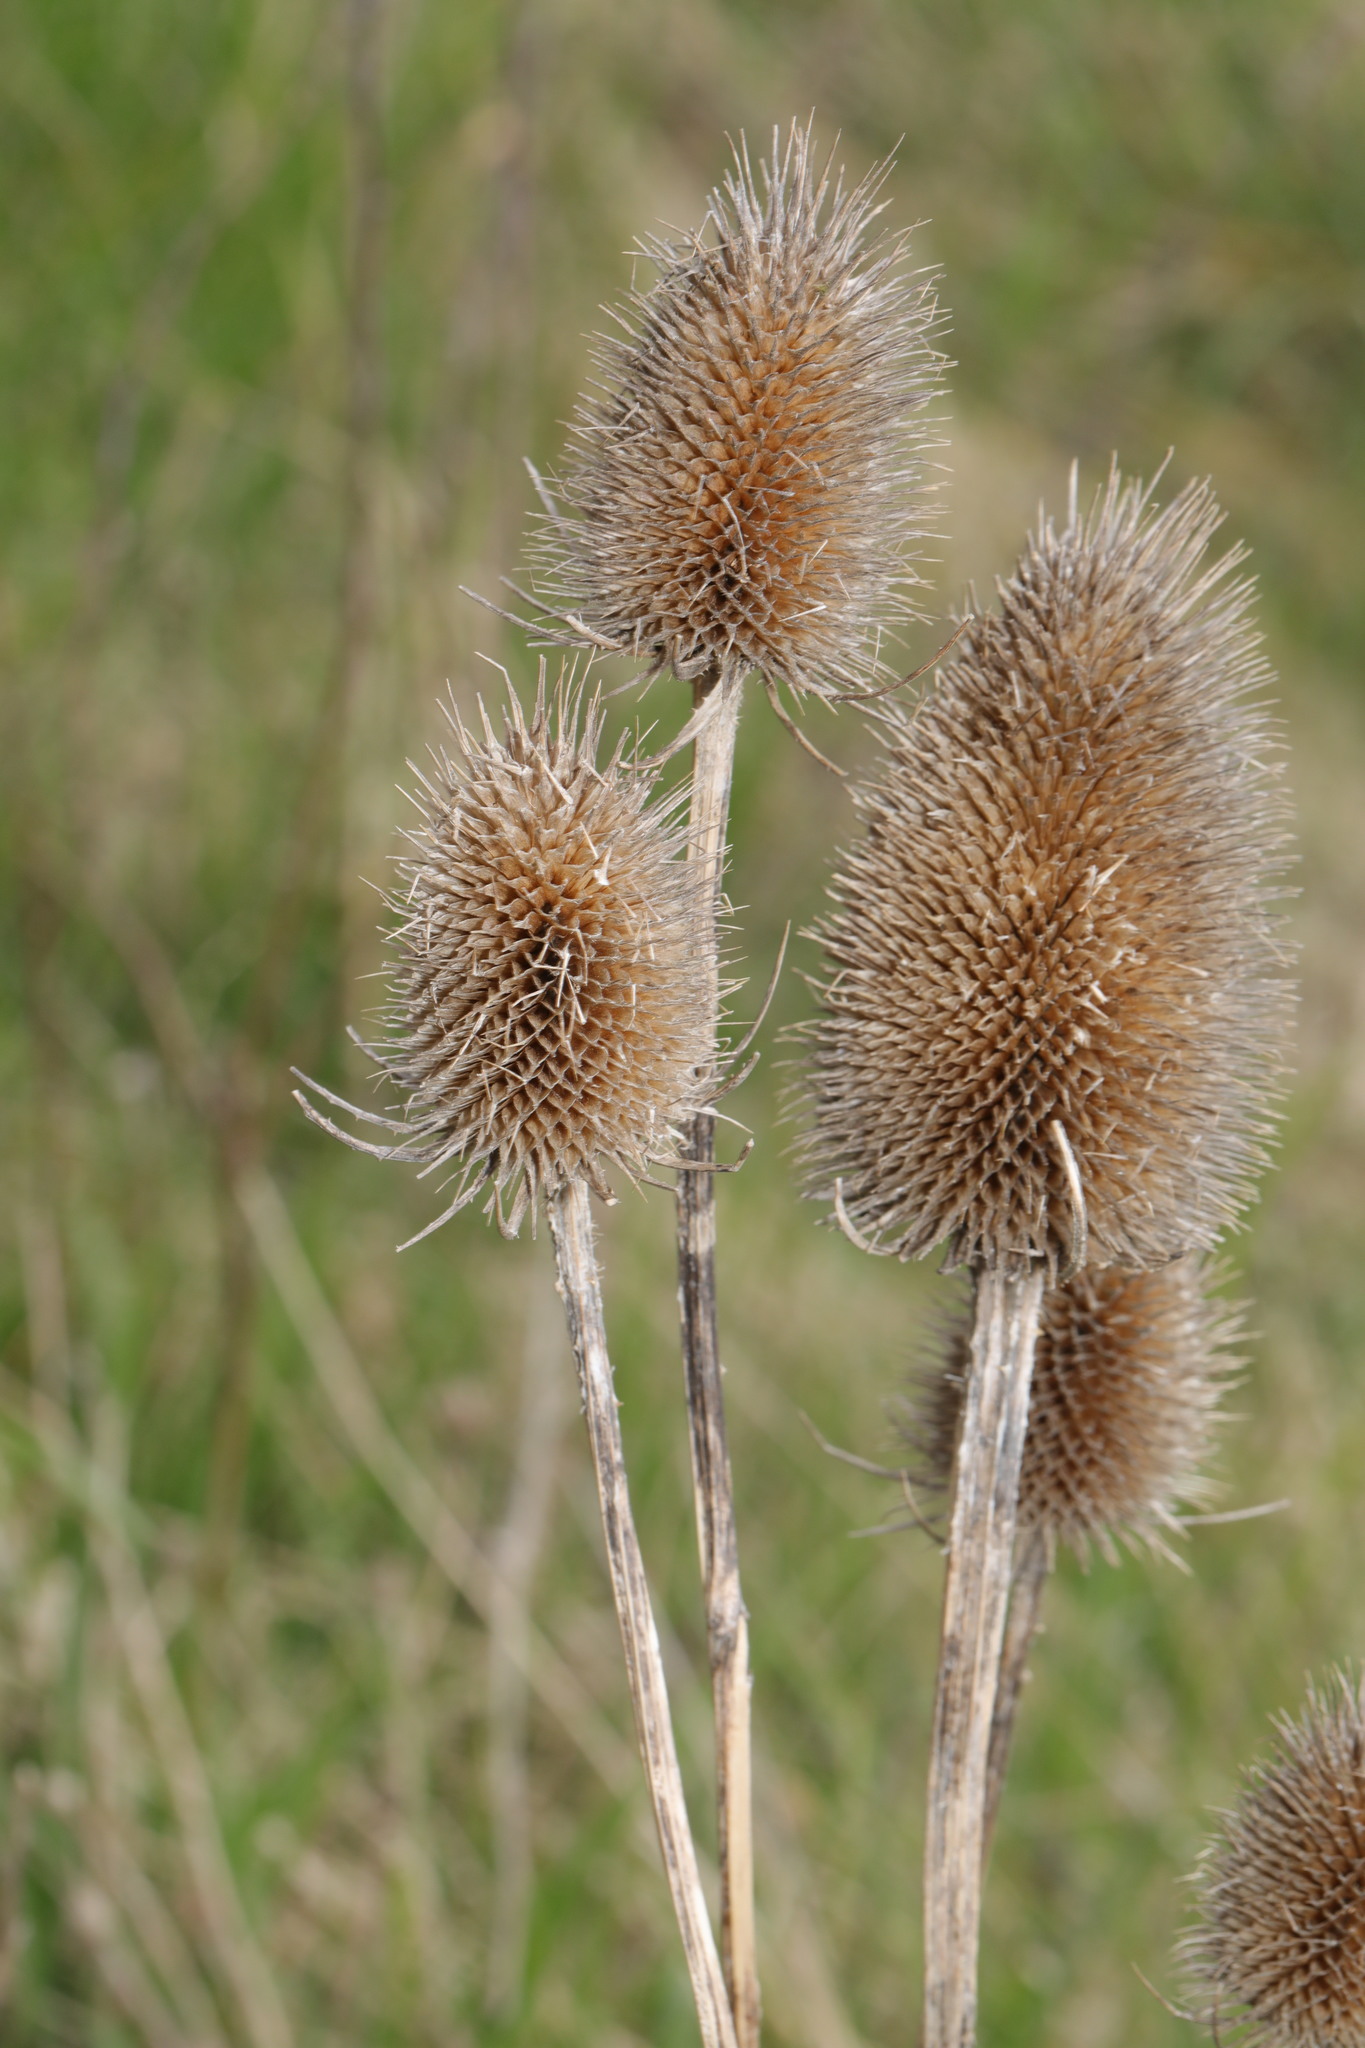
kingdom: Plantae
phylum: Tracheophyta
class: Magnoliopsida
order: Dipsacales
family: Caprifoliaceae
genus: Dipsacus
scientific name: Dipsacus fullonum
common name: Teasel
